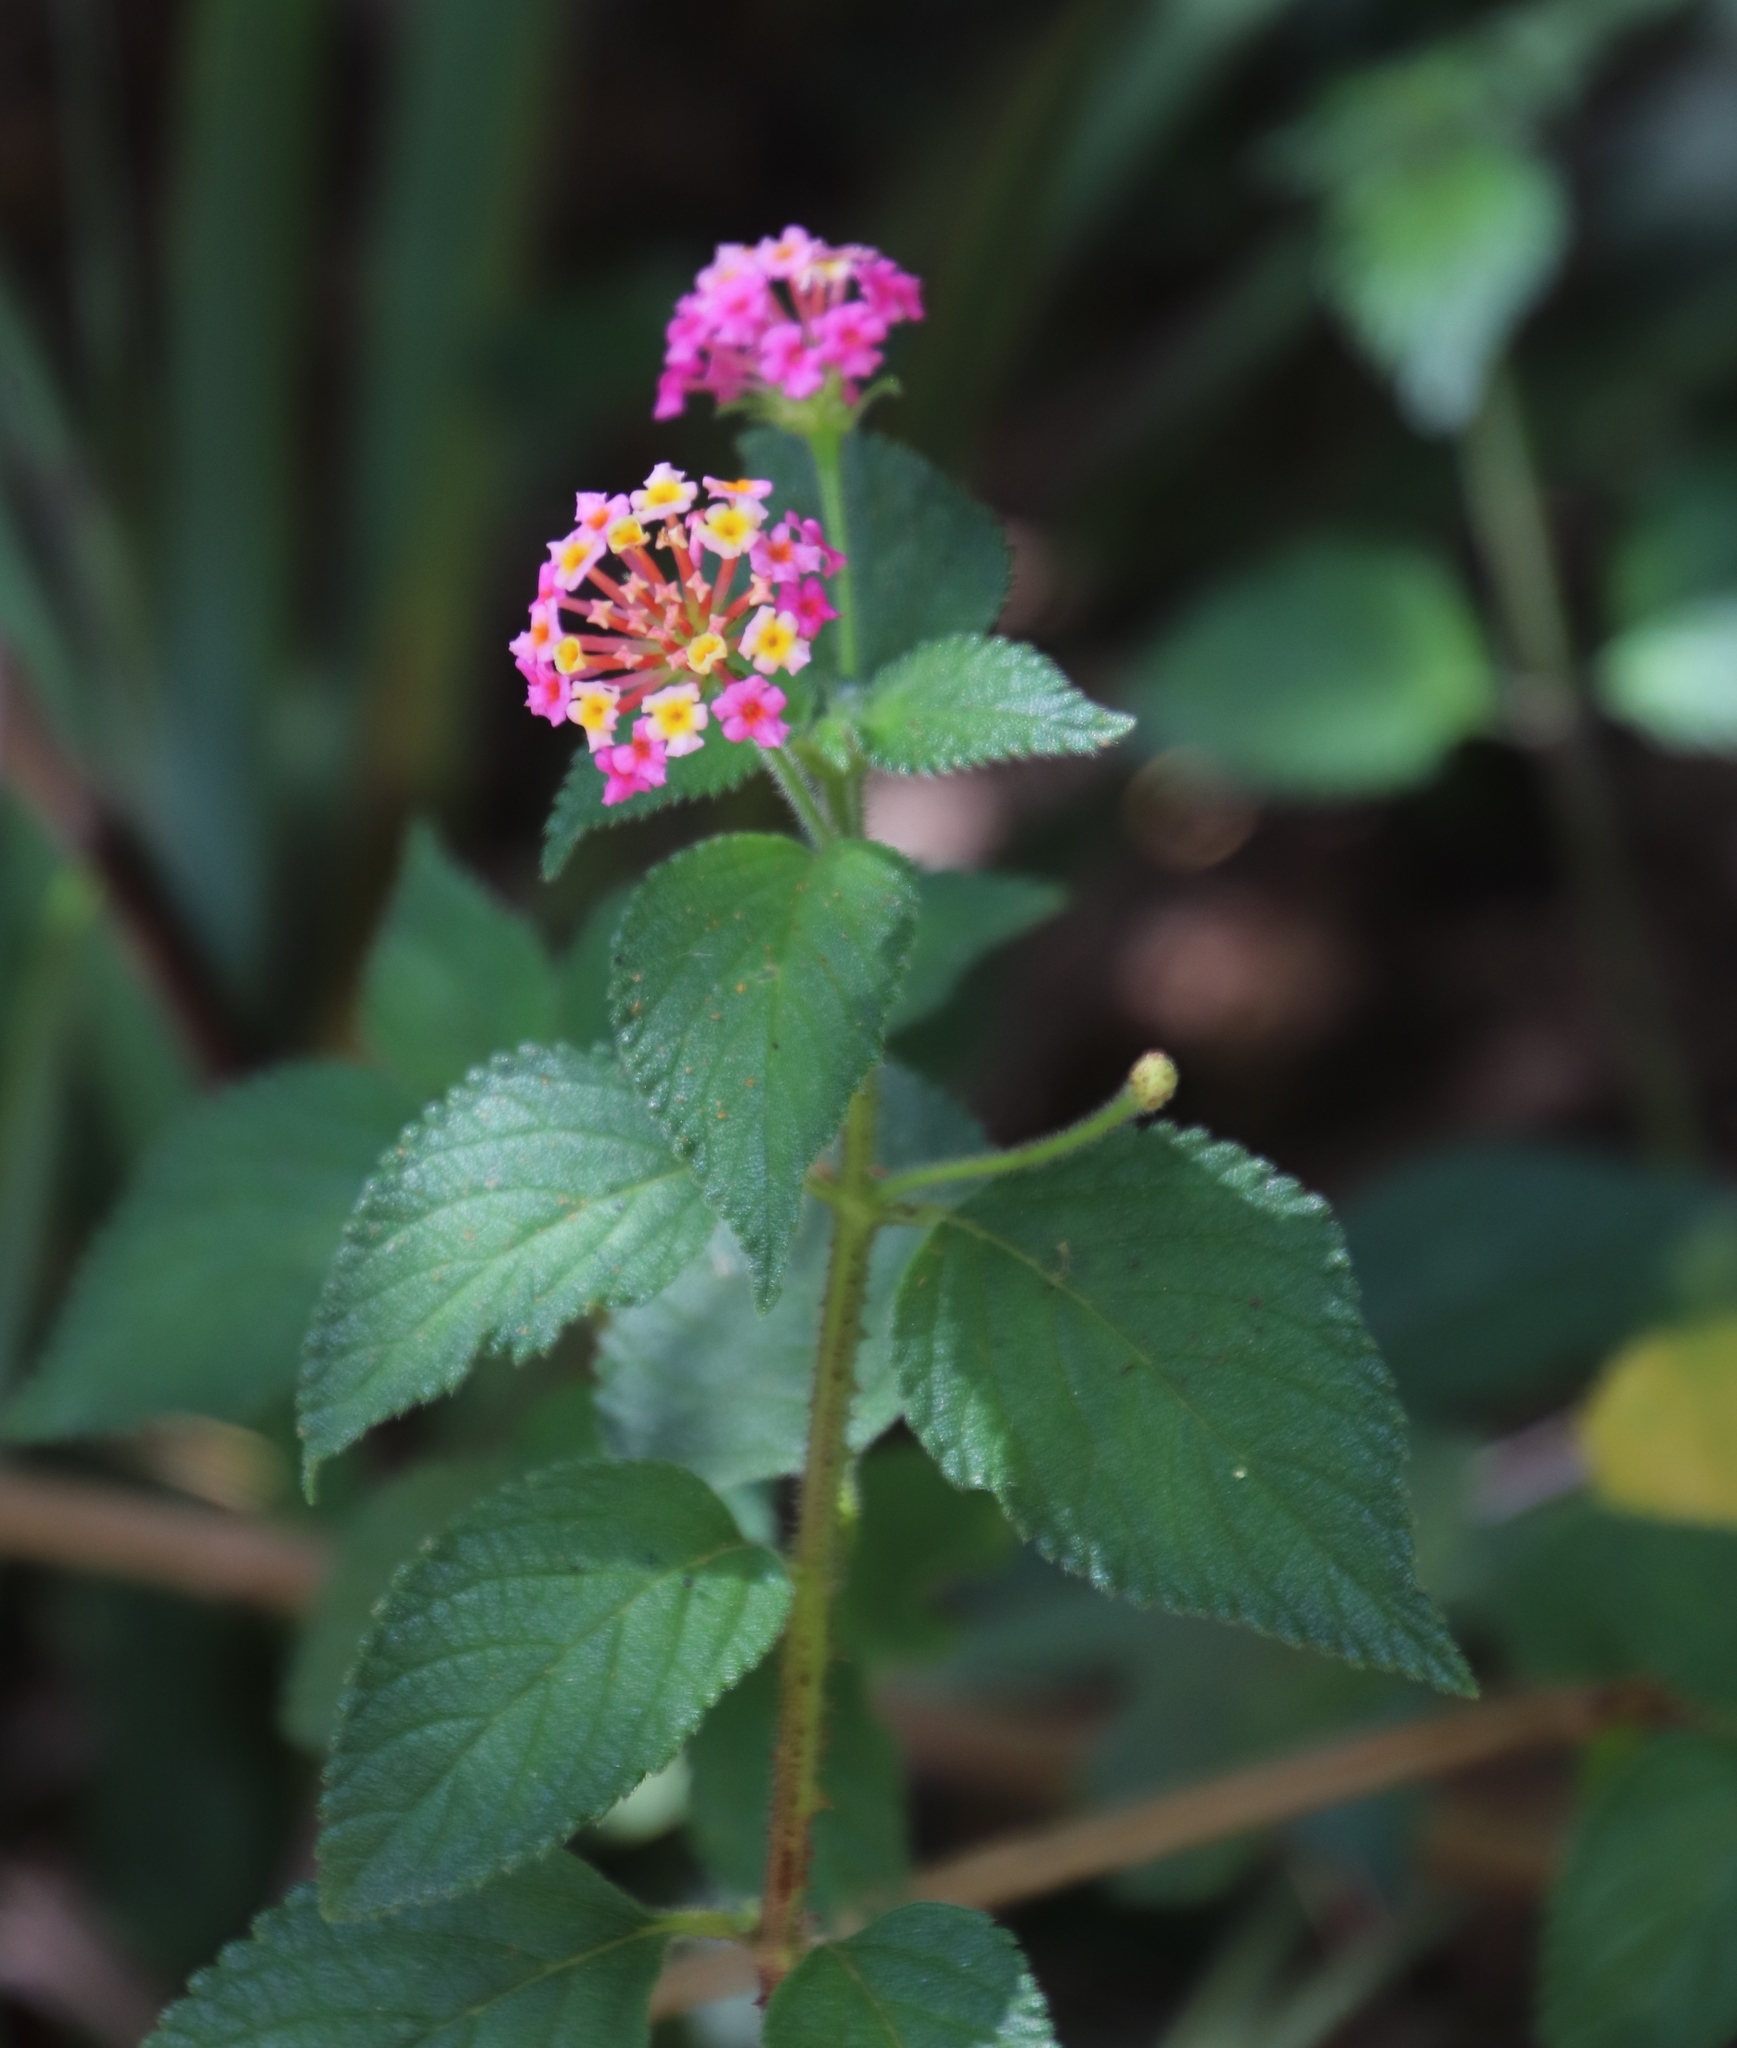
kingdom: Plantae
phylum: Tracheophyta
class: Magnoliopsida
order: Lamiales
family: Verbenaceae
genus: Lantana
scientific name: Lantana camara
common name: Lantana
